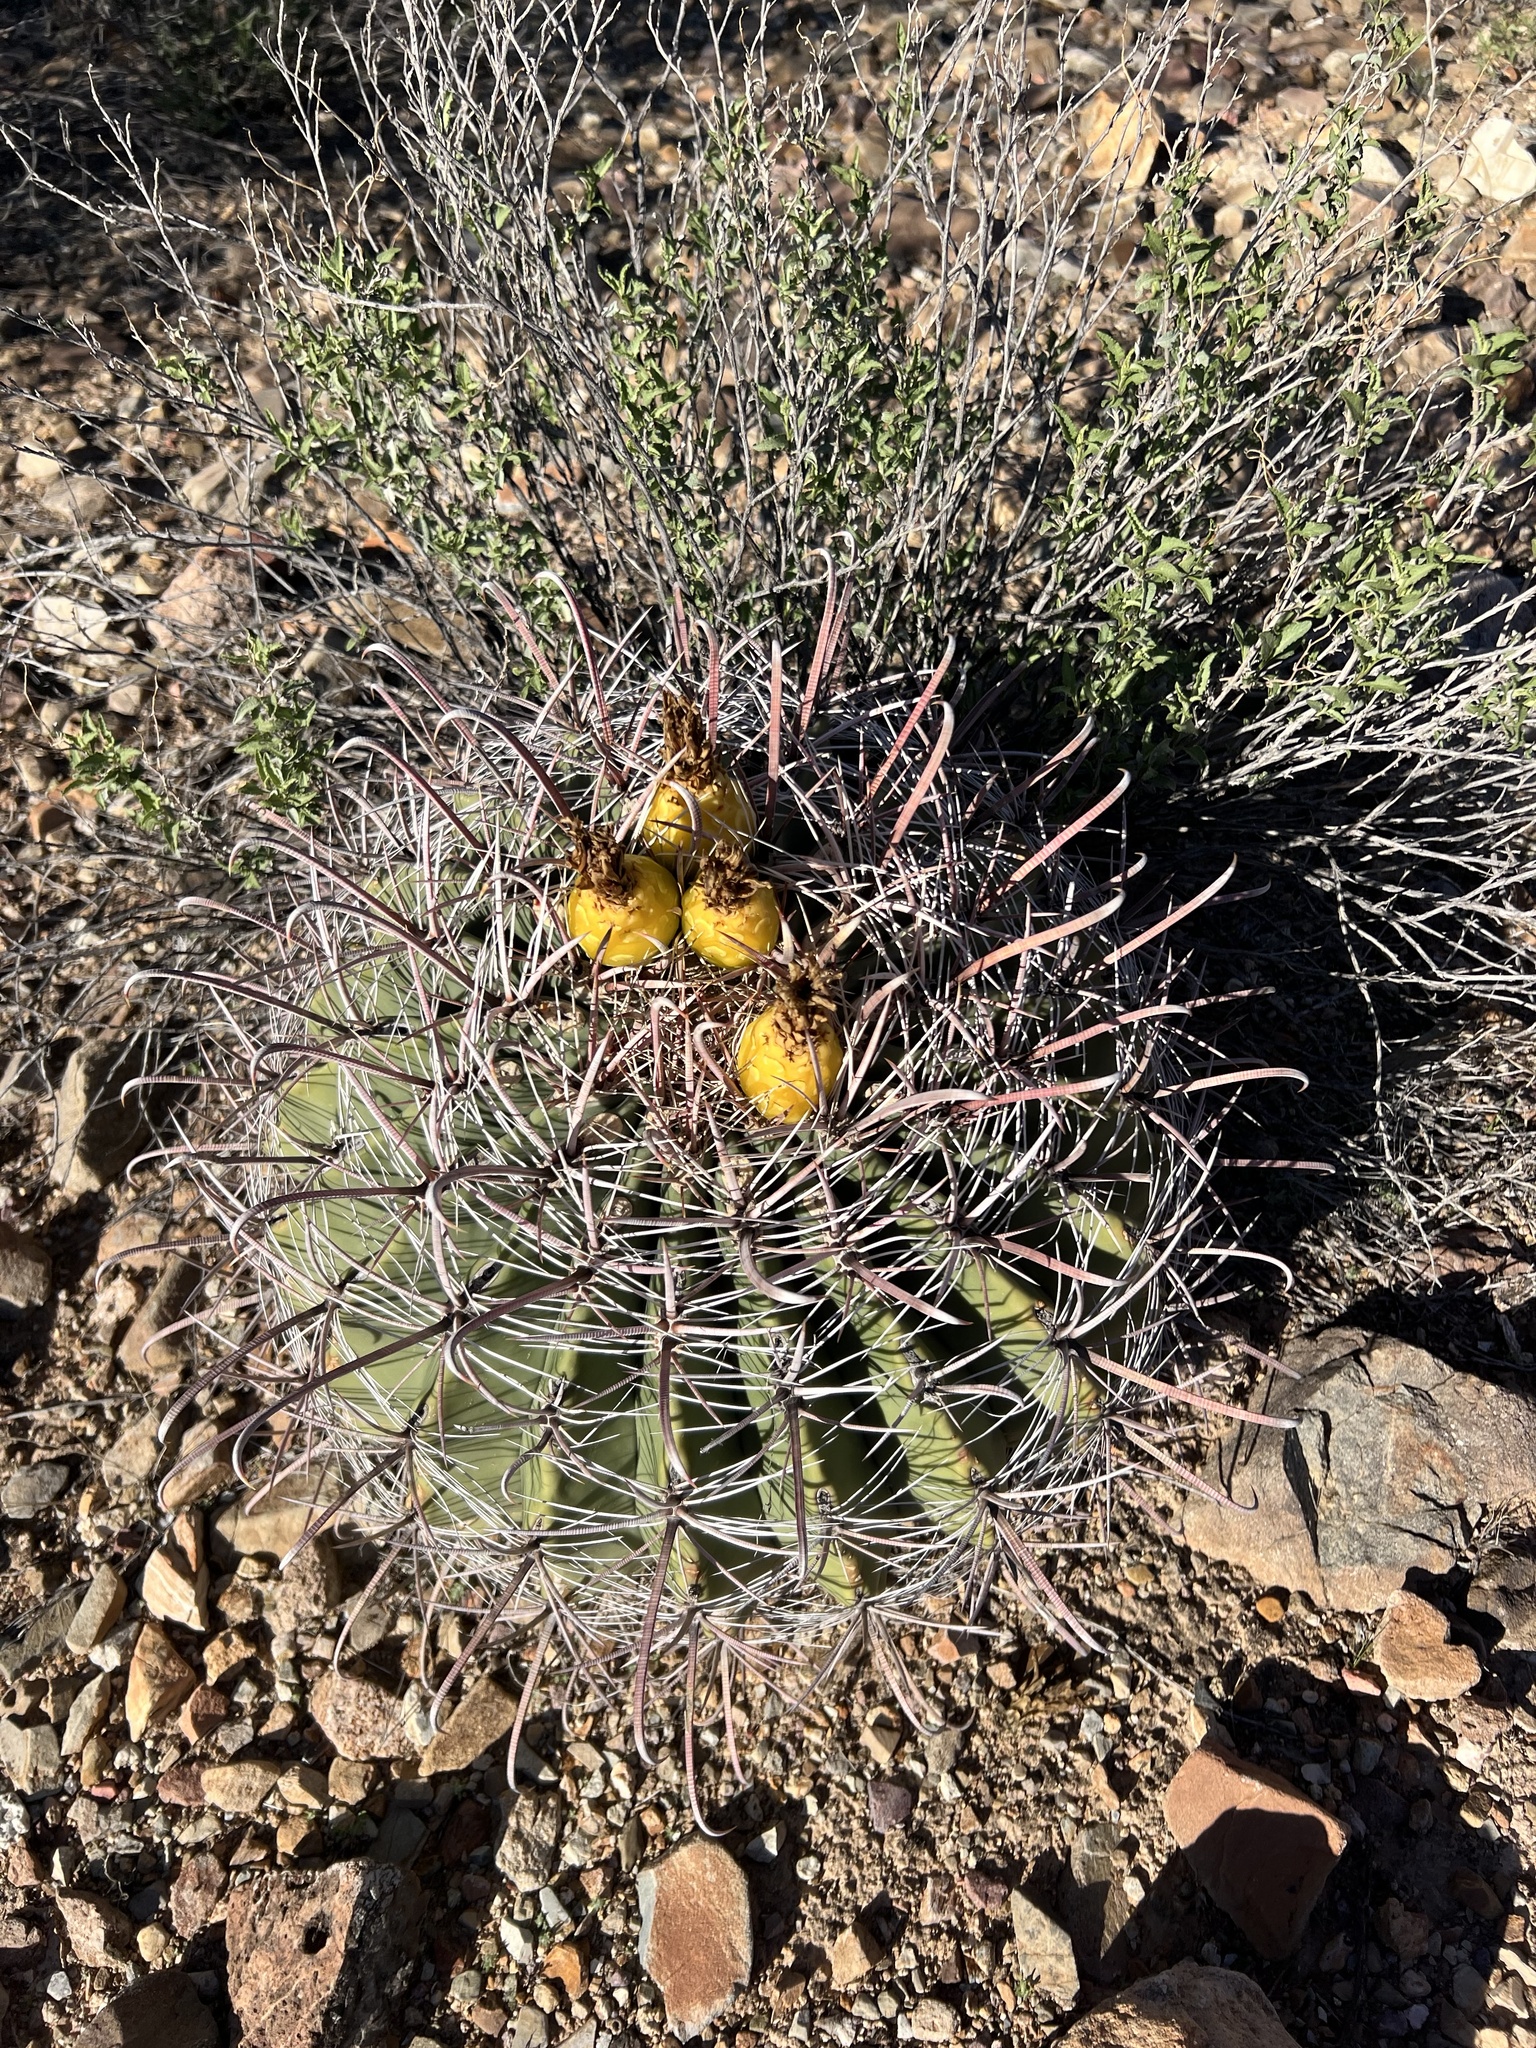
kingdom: Plantae
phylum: Tracheophyta
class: Magnoliopsida
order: Caryophyllales
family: Cactaceae
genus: Ferocactus
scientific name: Ferocactus wislizeni
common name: Candy barrel cactus
